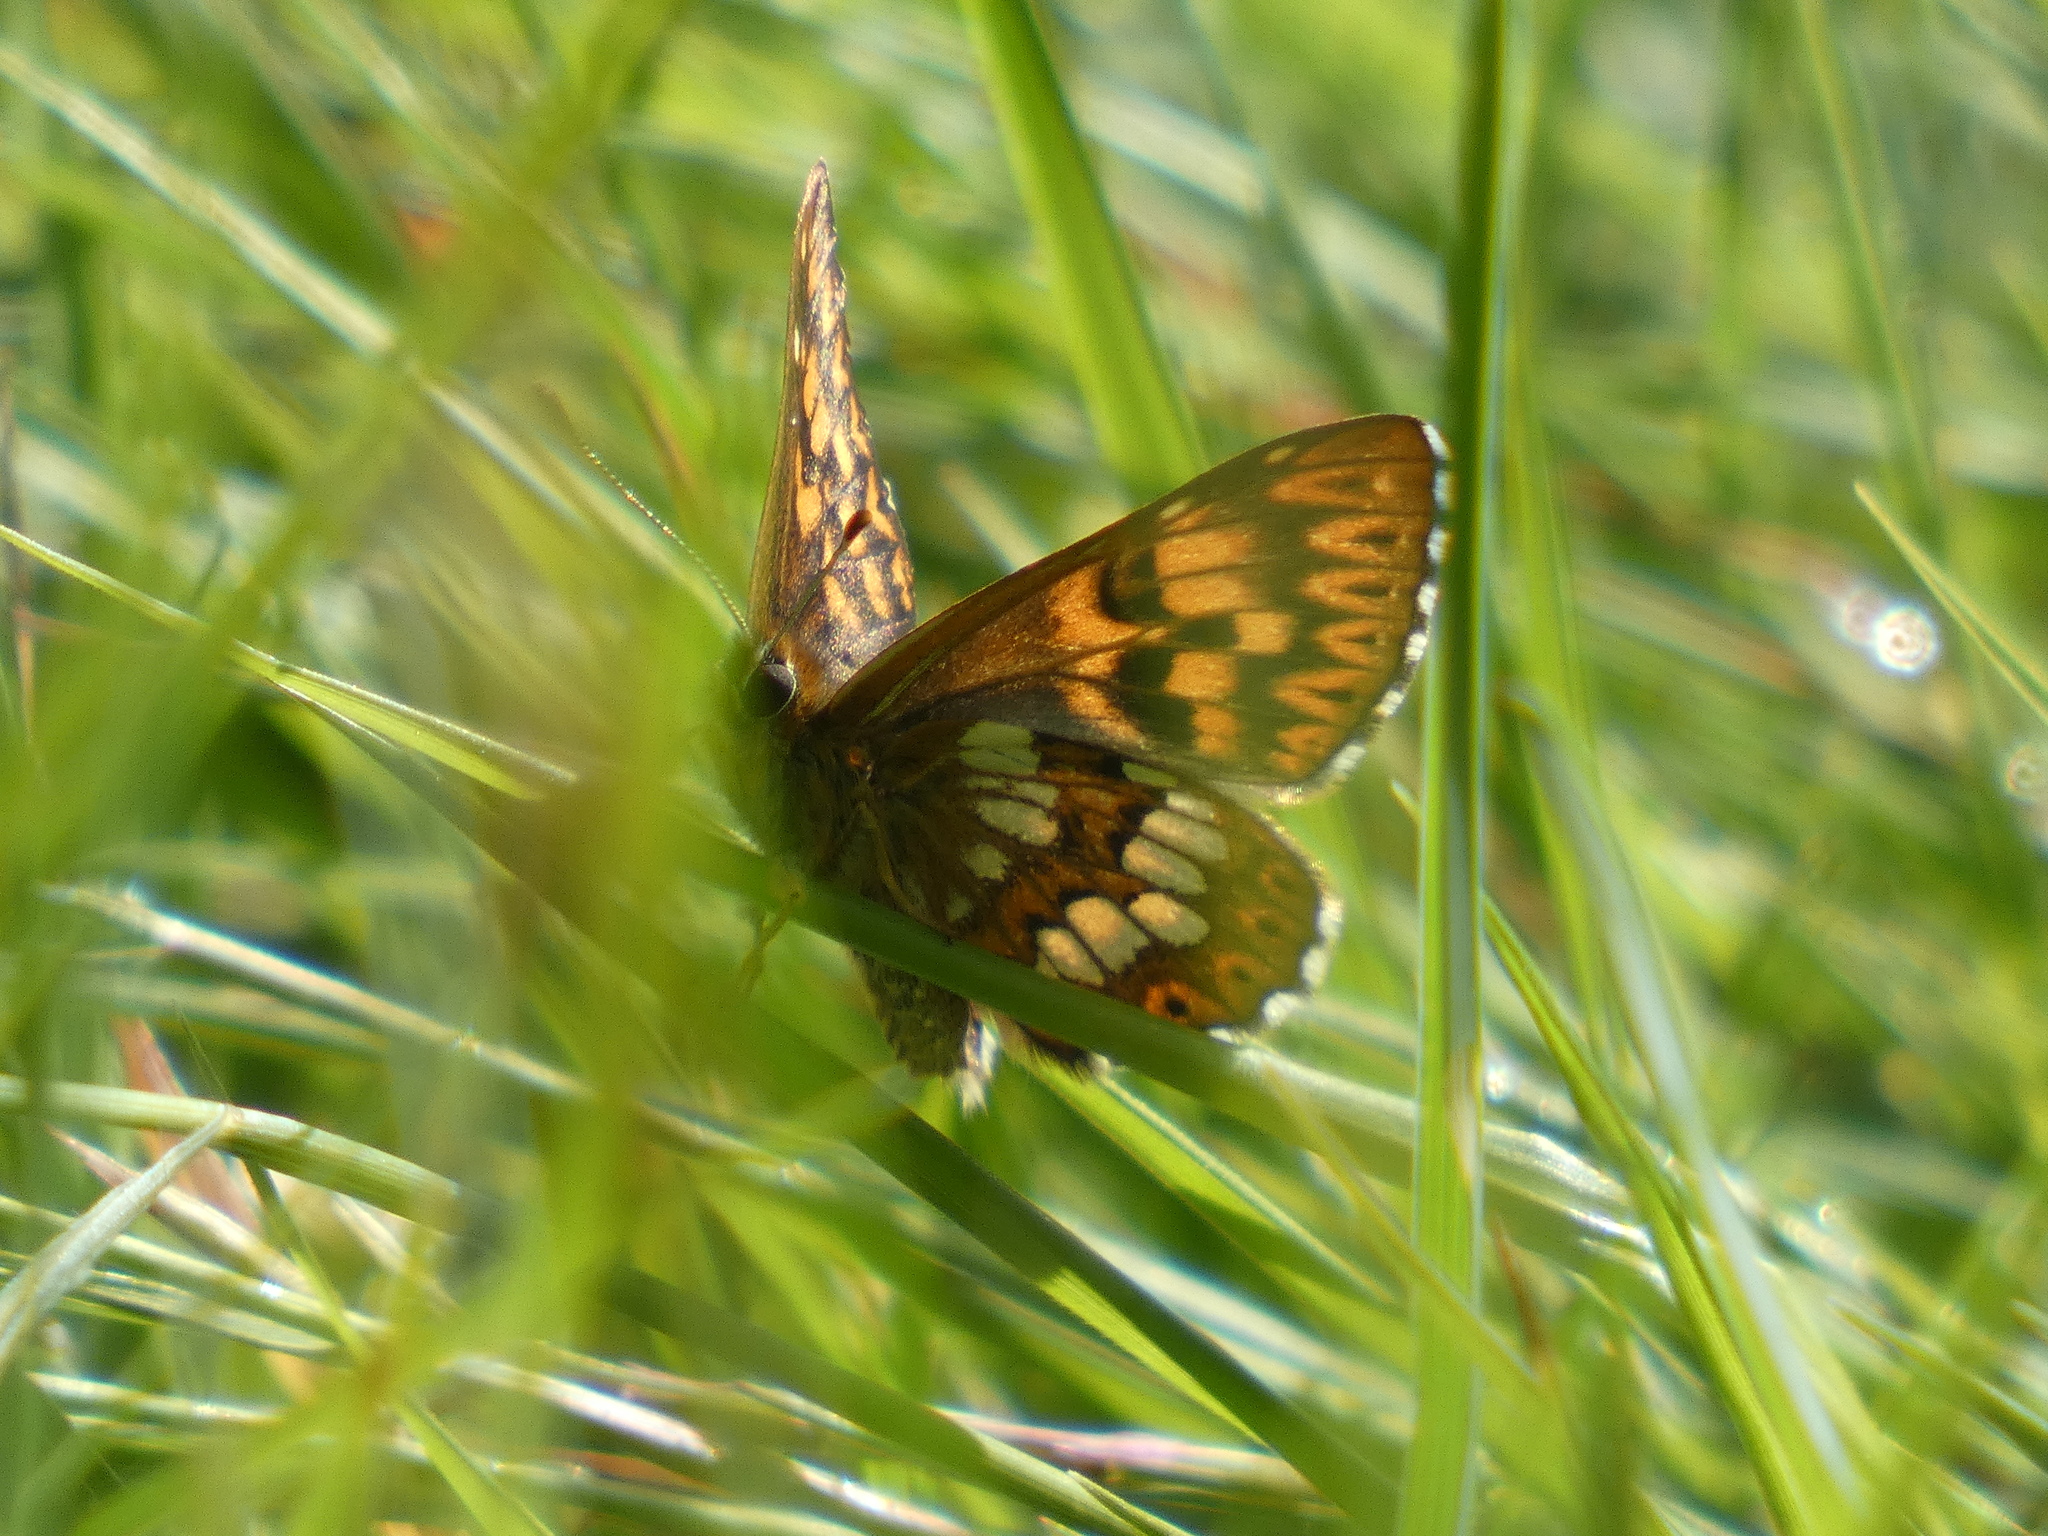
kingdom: Animalia
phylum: Arthropoda
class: Insecta
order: Lepidoptera
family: Riodinidae
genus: Hamearis
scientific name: Hamearis lucina
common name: Duke of burgundy fritillary
